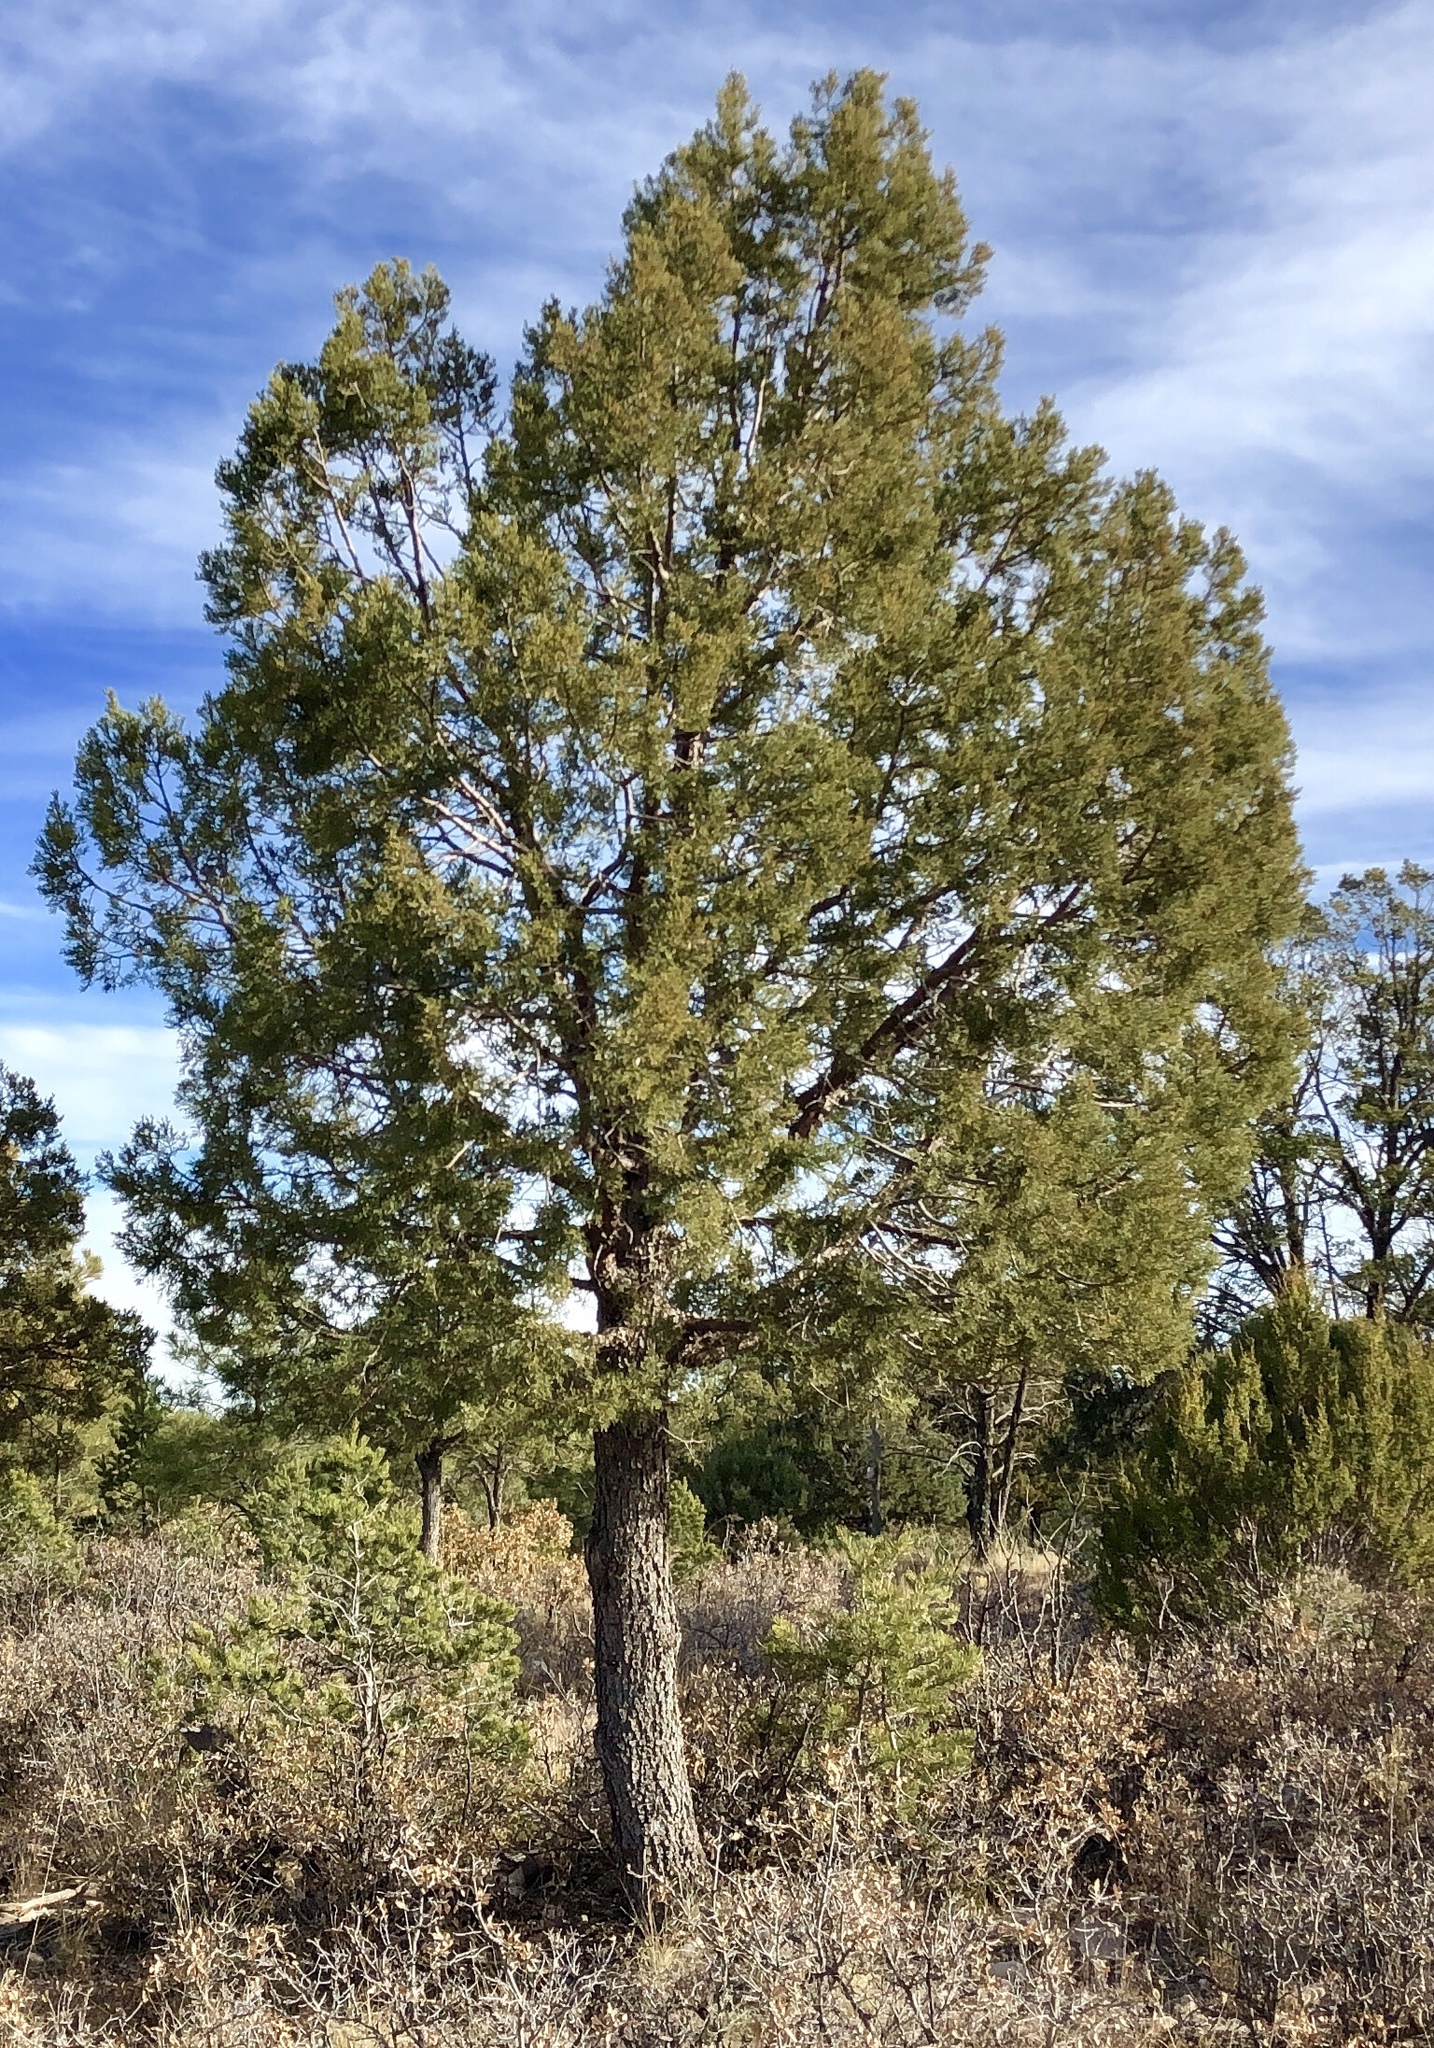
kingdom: Plantae
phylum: Tracheophyta
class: Pinopsida
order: Pinales
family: Cupressaceae
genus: Juniperus
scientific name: Juniperus deppeana
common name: Alligator juniper
